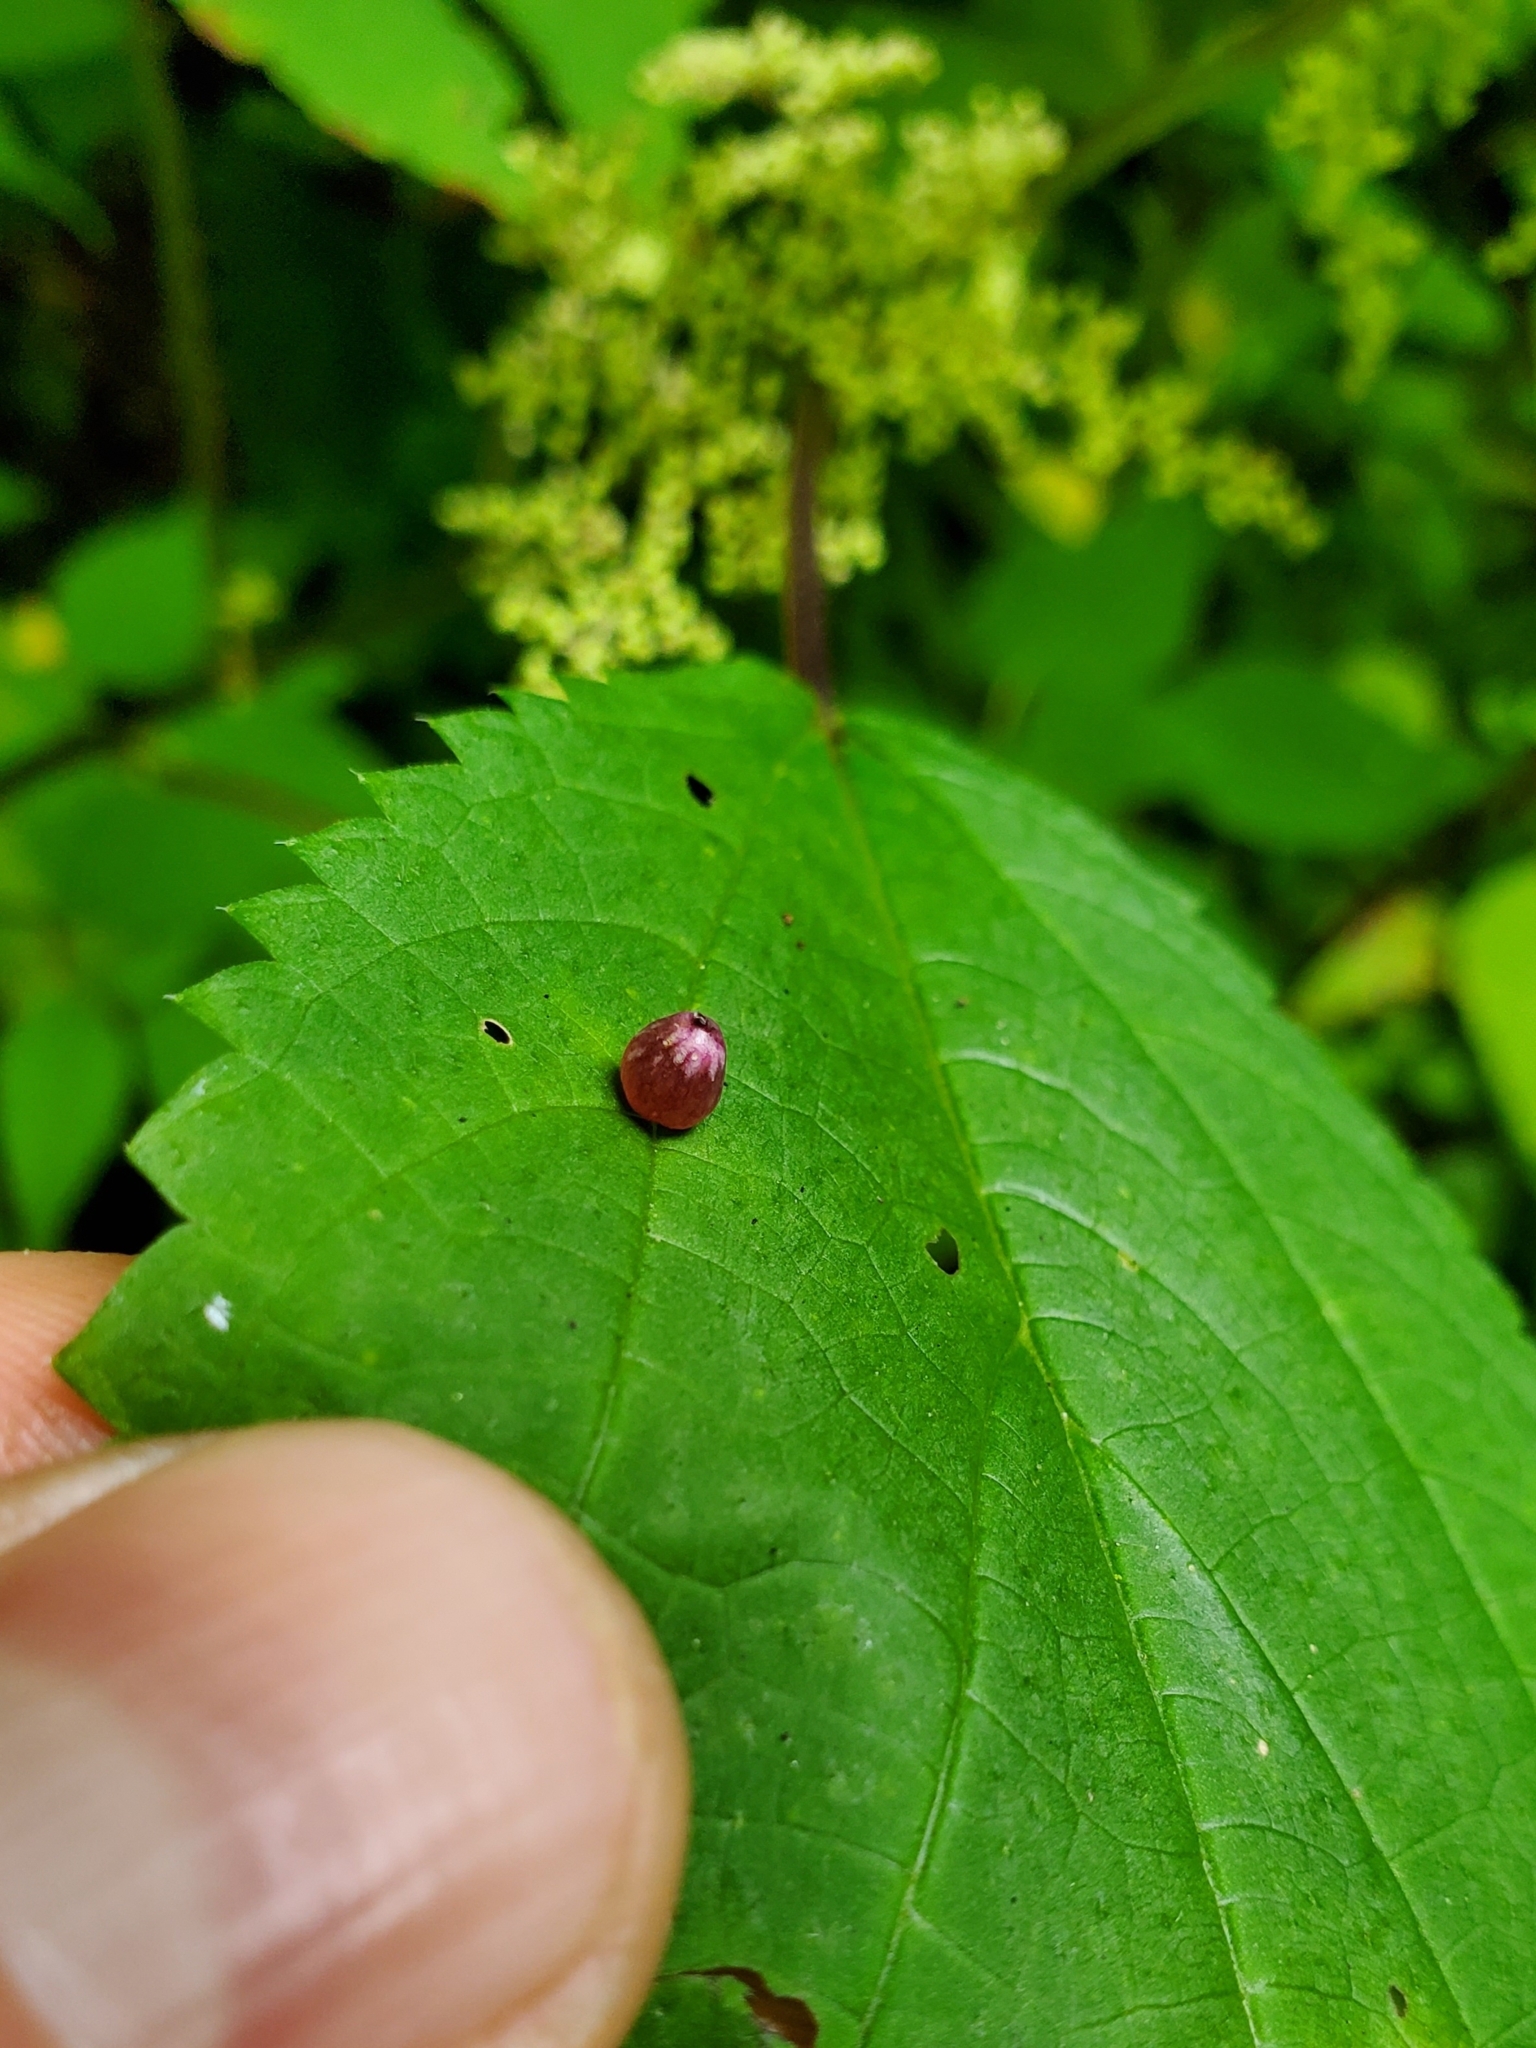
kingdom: Animalia
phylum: Arthropoda
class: Insecta
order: Diptera
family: Cecidomyiidae
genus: Dasineura
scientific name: Dasineura investita
